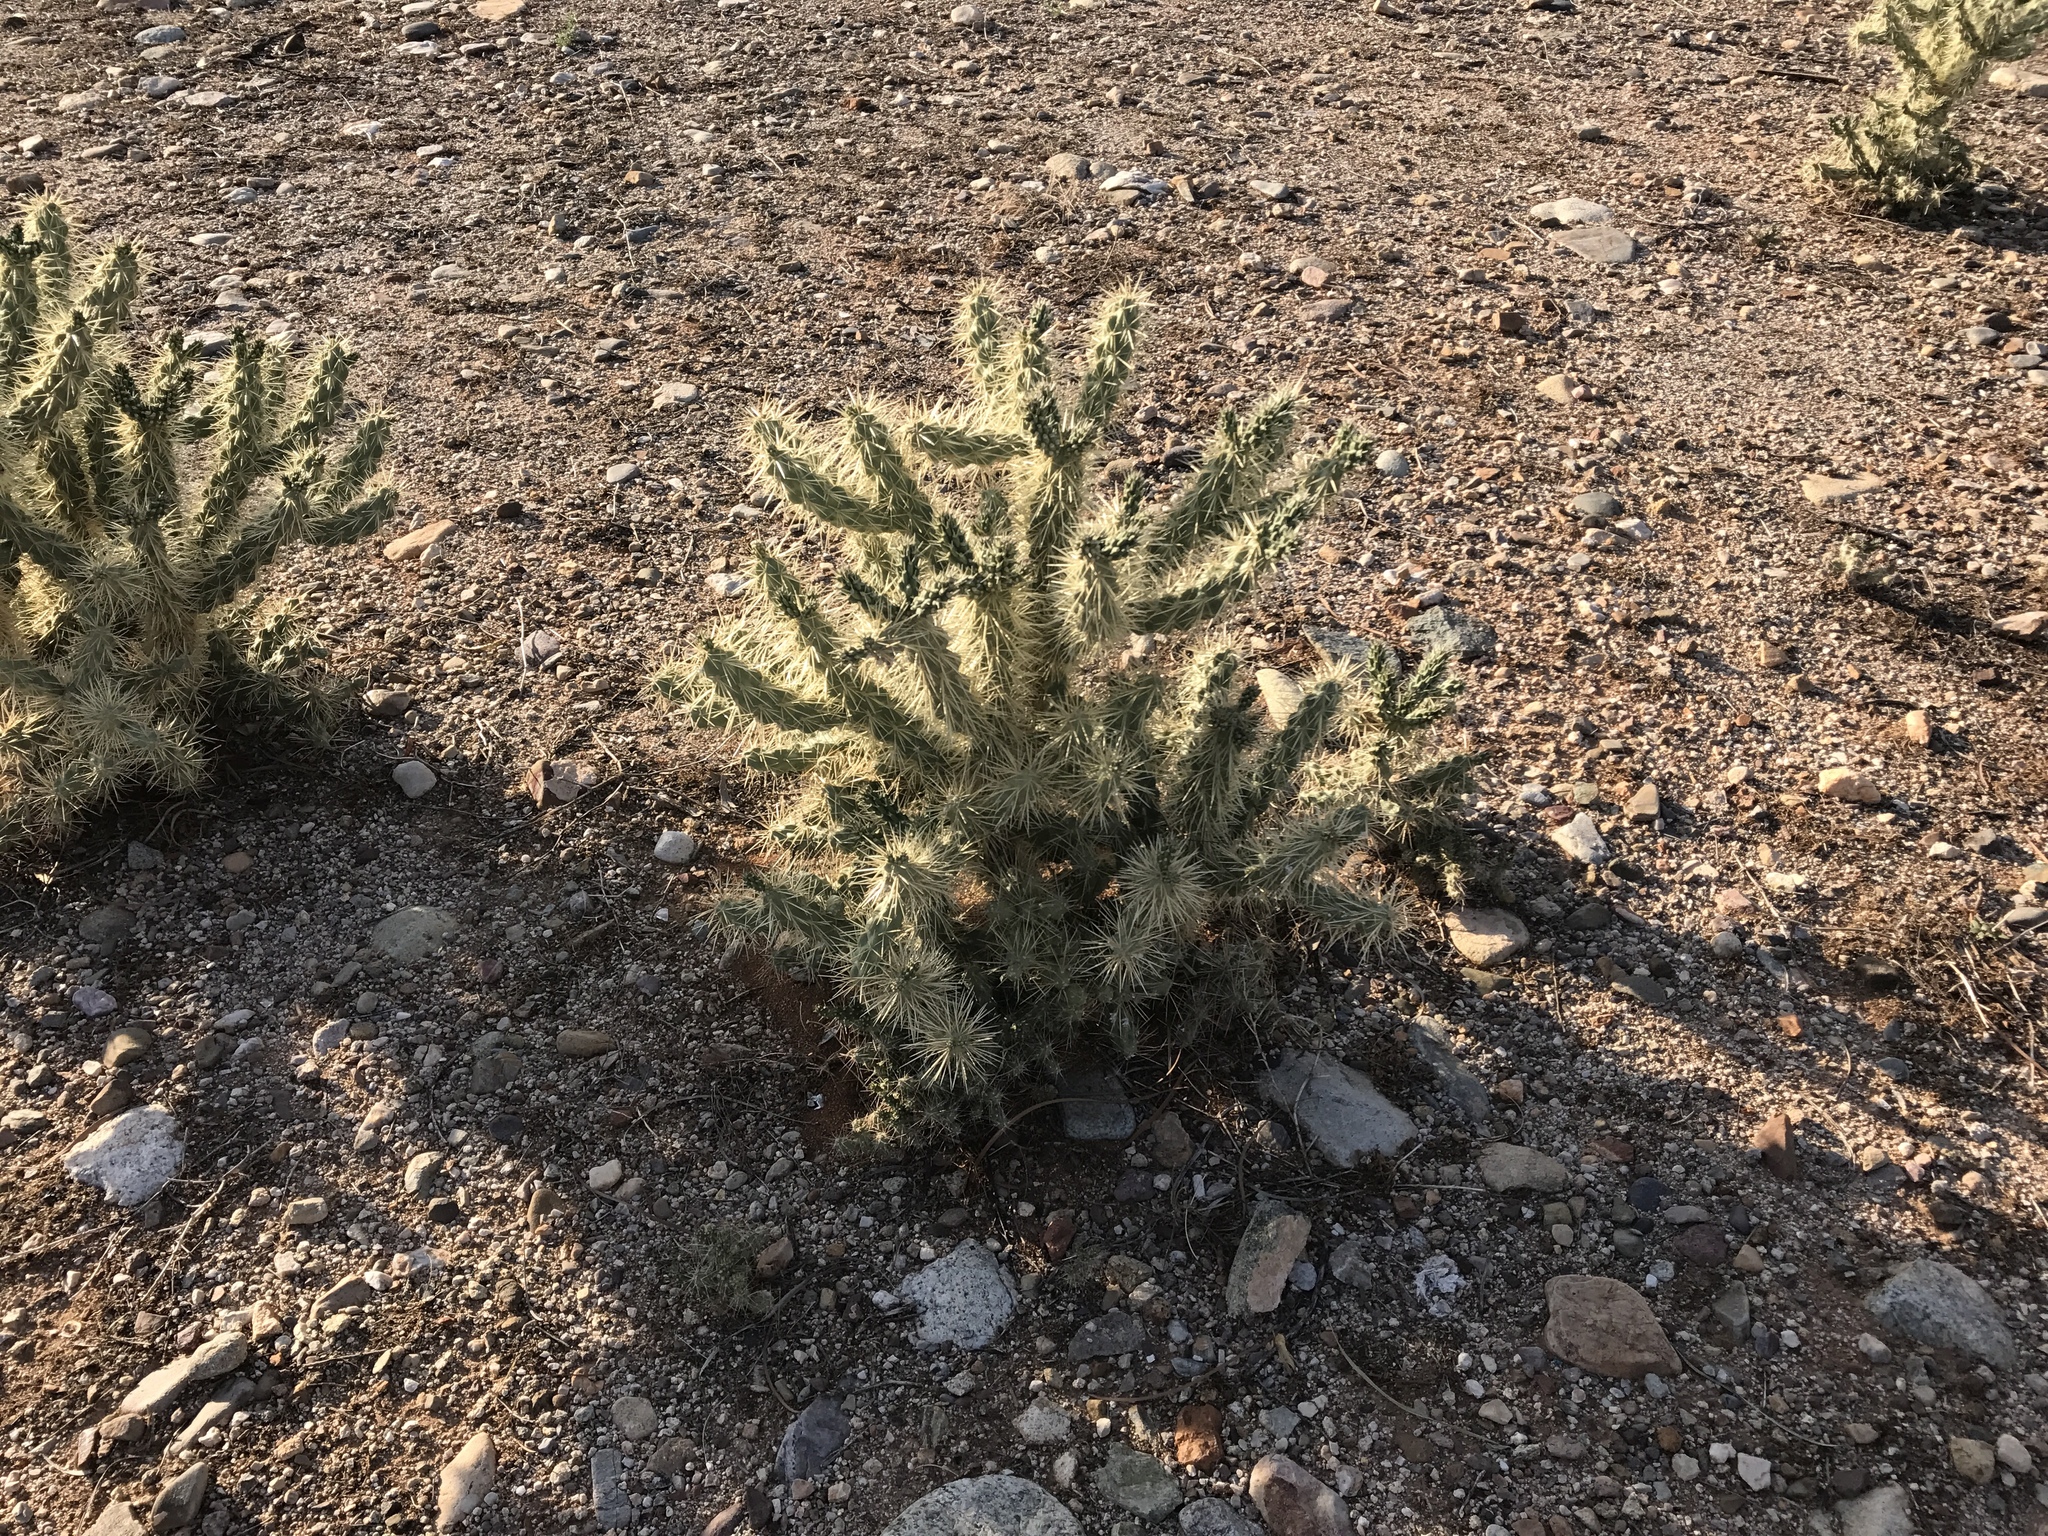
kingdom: Plantae
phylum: Tracheophyta
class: Magnoliopsida
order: Caryophyllales
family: Cactaceae
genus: Cylindropuntia
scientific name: Cylindropuntia fulgida
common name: Jumping cholla
